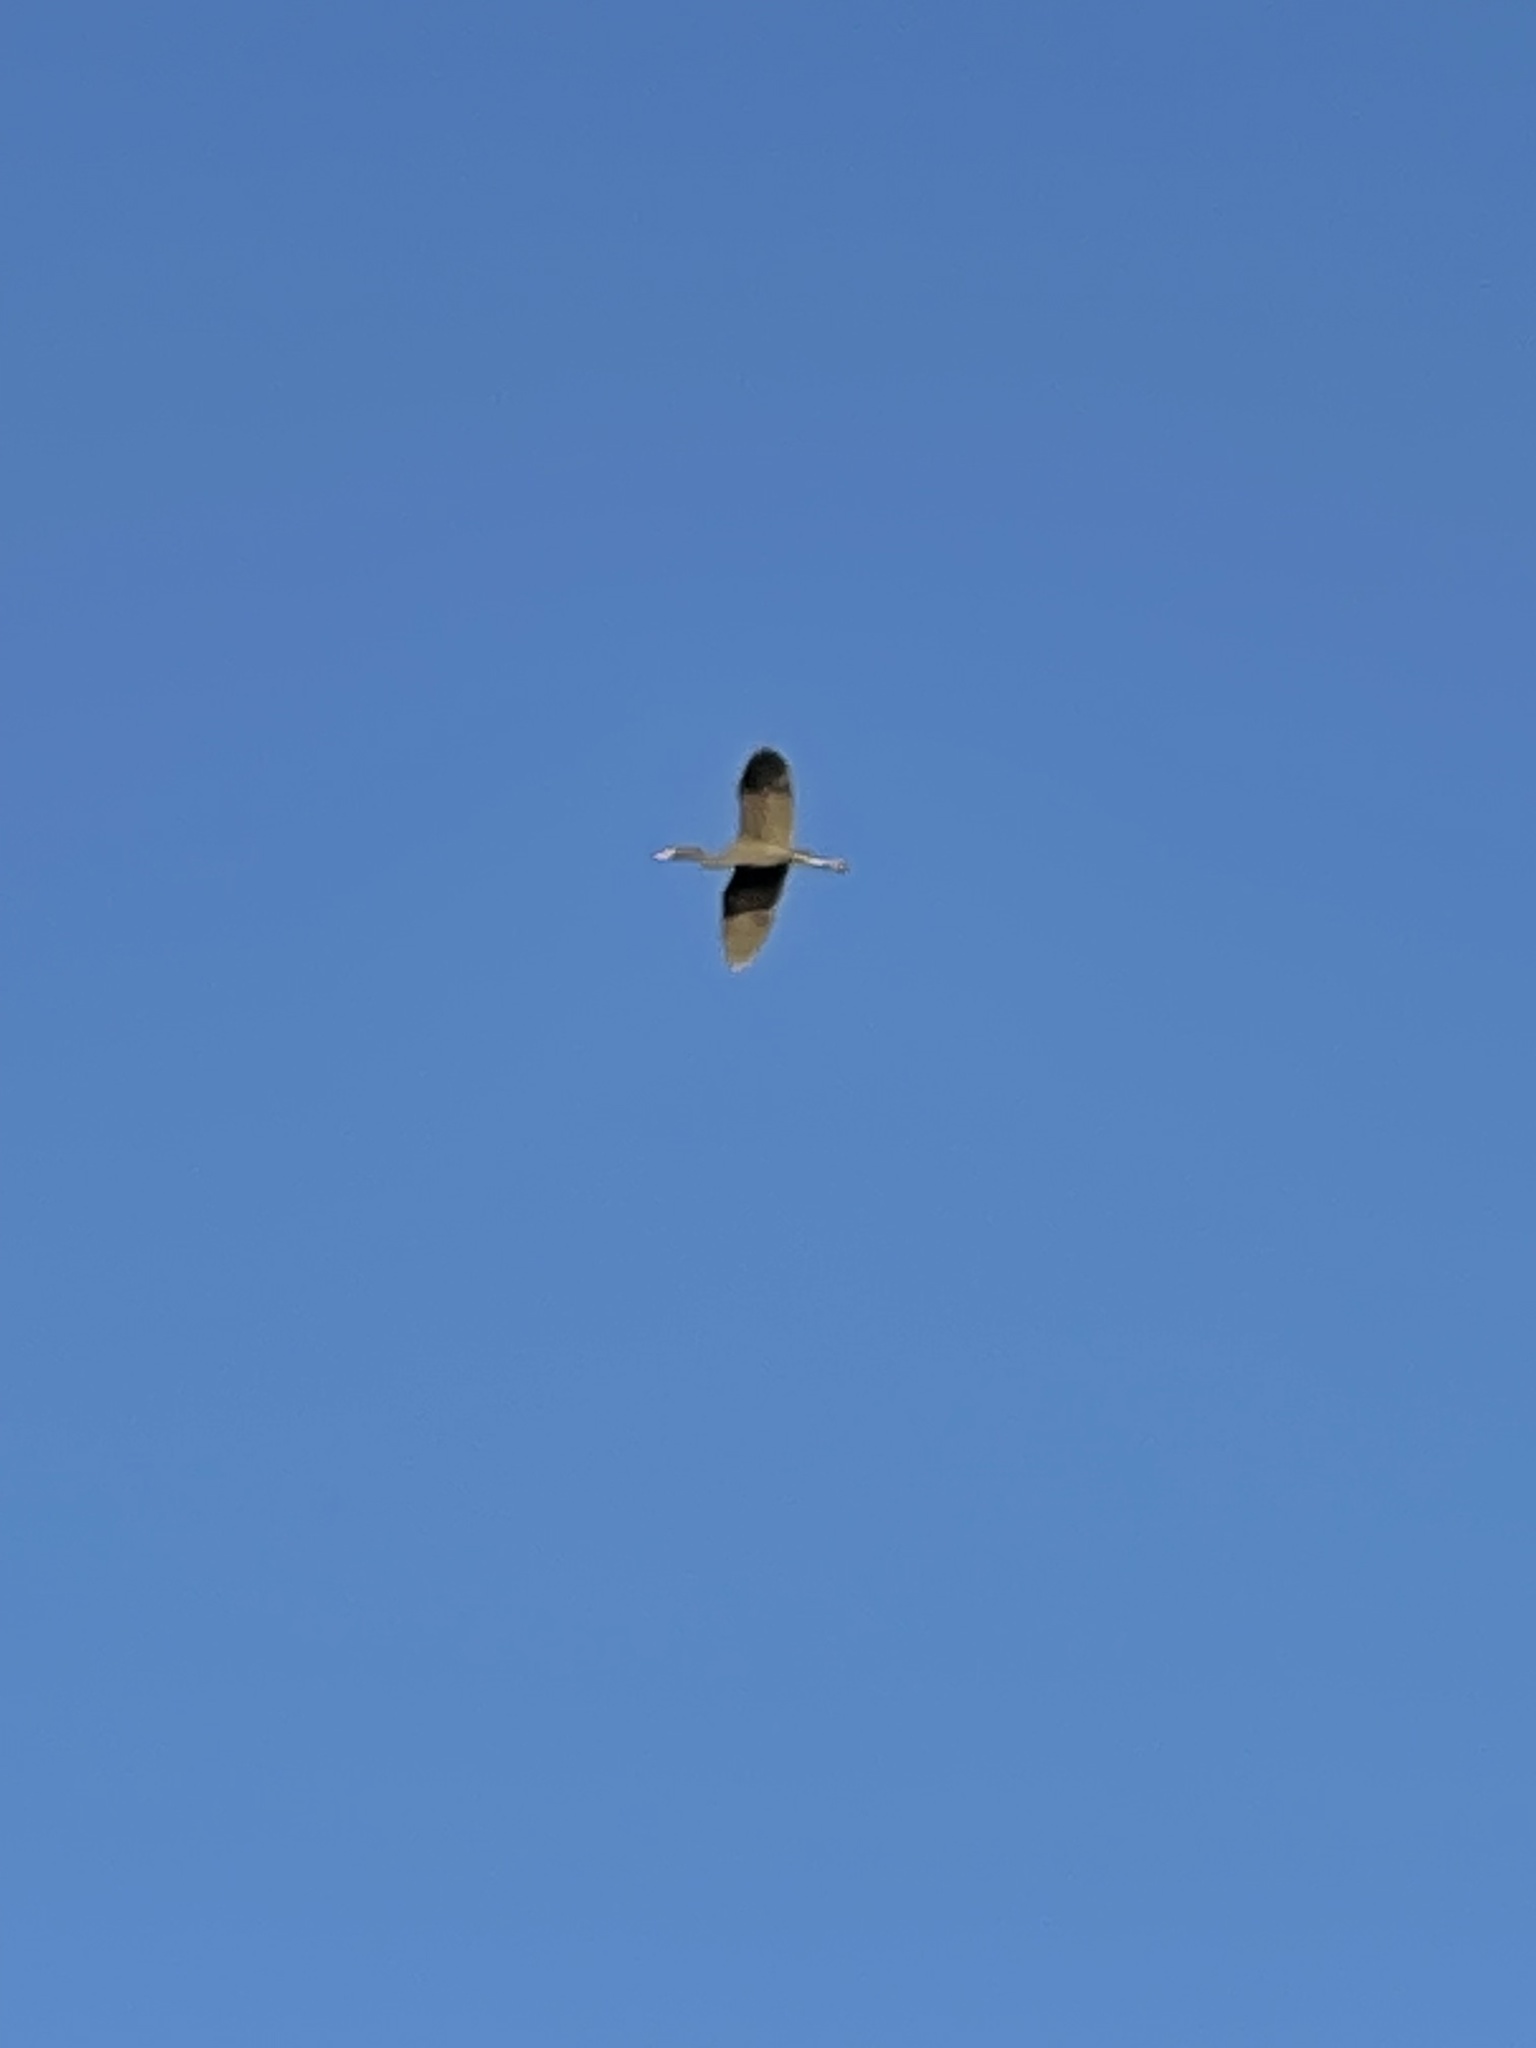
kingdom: Animalia
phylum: Chordata
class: Aves
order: Pelecaniformes
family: Ardeidae
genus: Egretta
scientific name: Egretta caerulea
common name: Little blue heron
